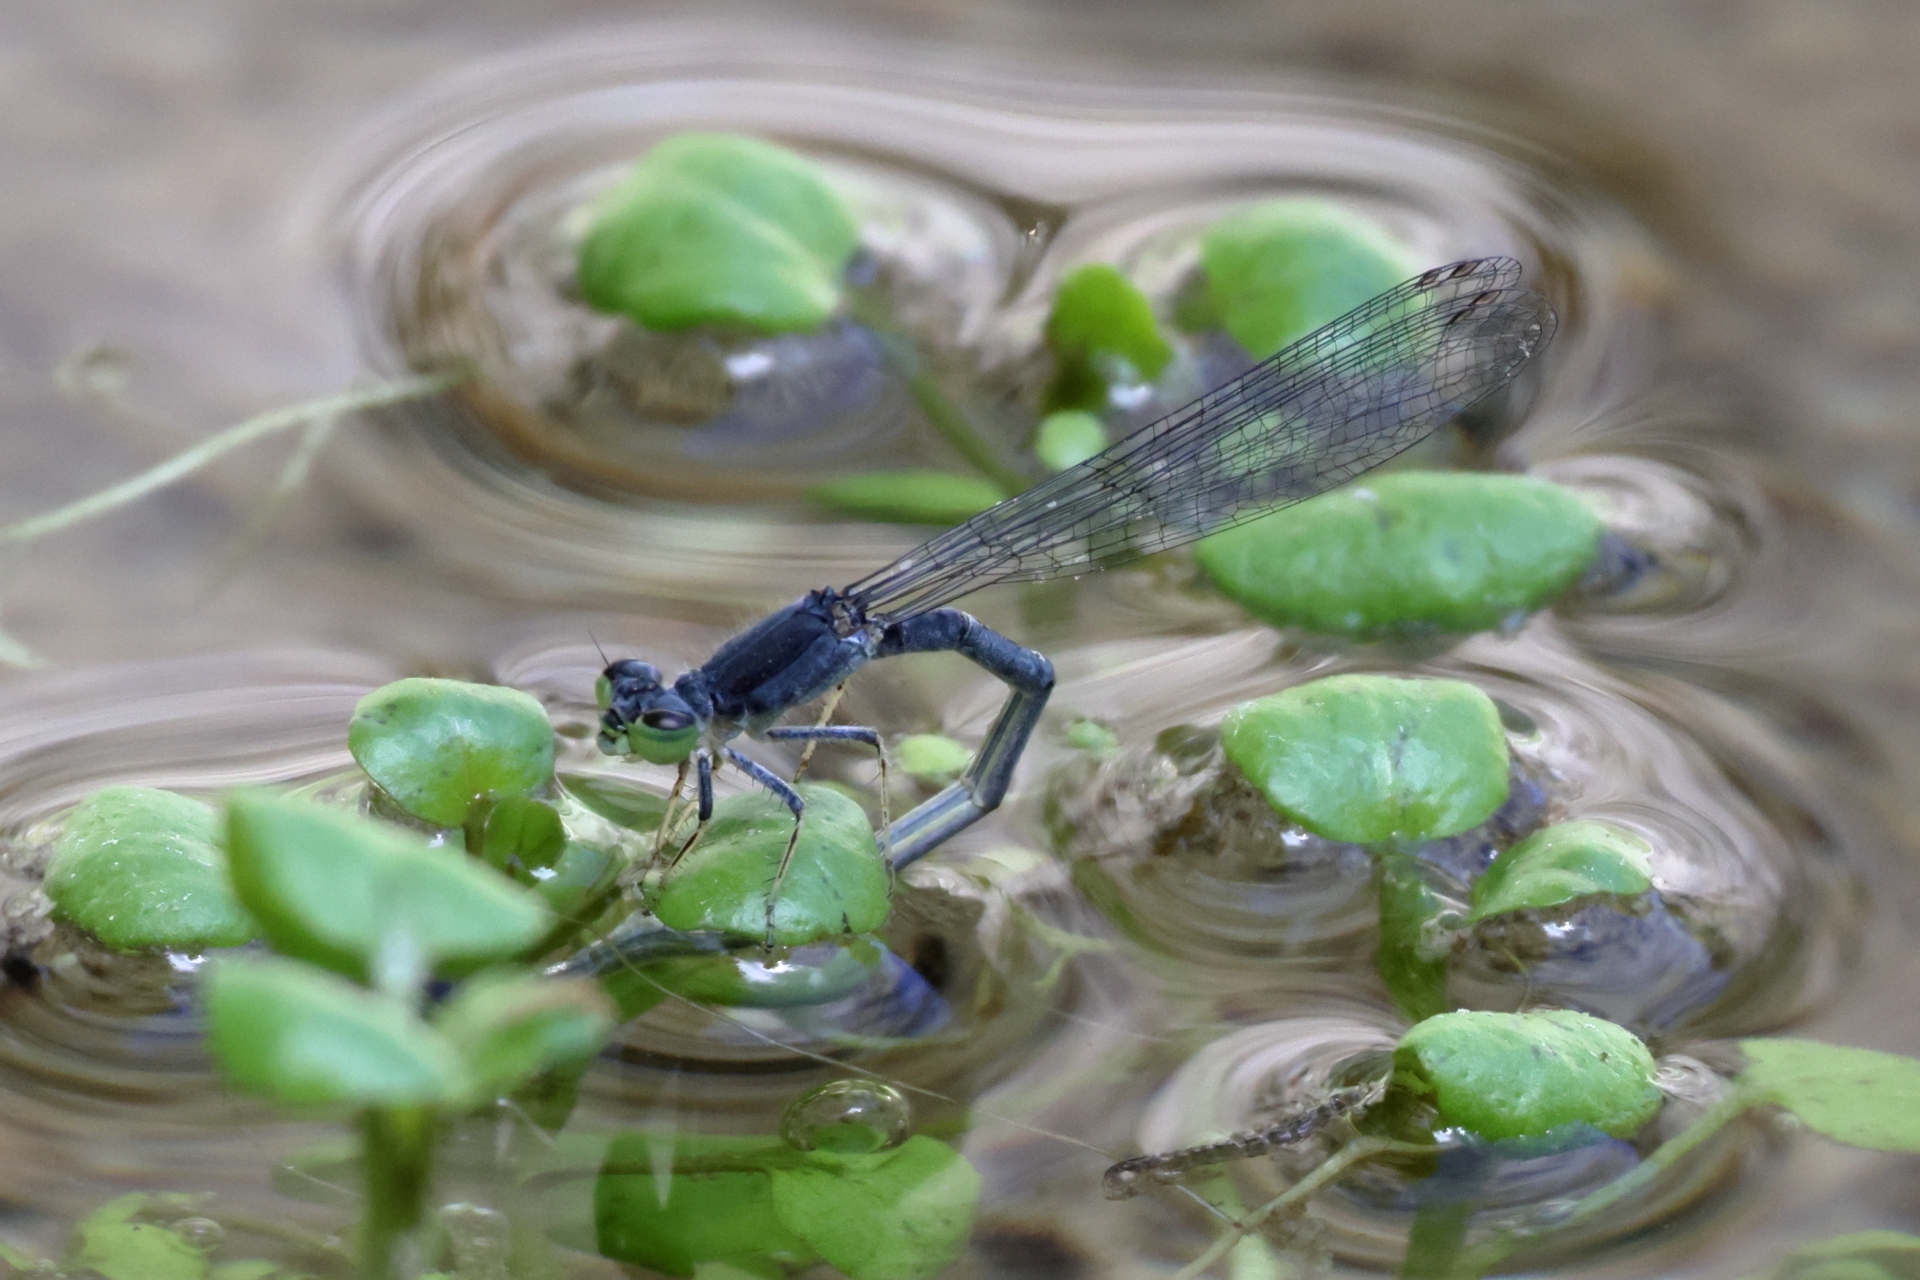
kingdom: Animalia
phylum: Arthropoda
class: Insecta
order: Odonata
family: Coenagrionidae
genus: Ischnura
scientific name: Ischnura demorsa
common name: Mexican forktail
